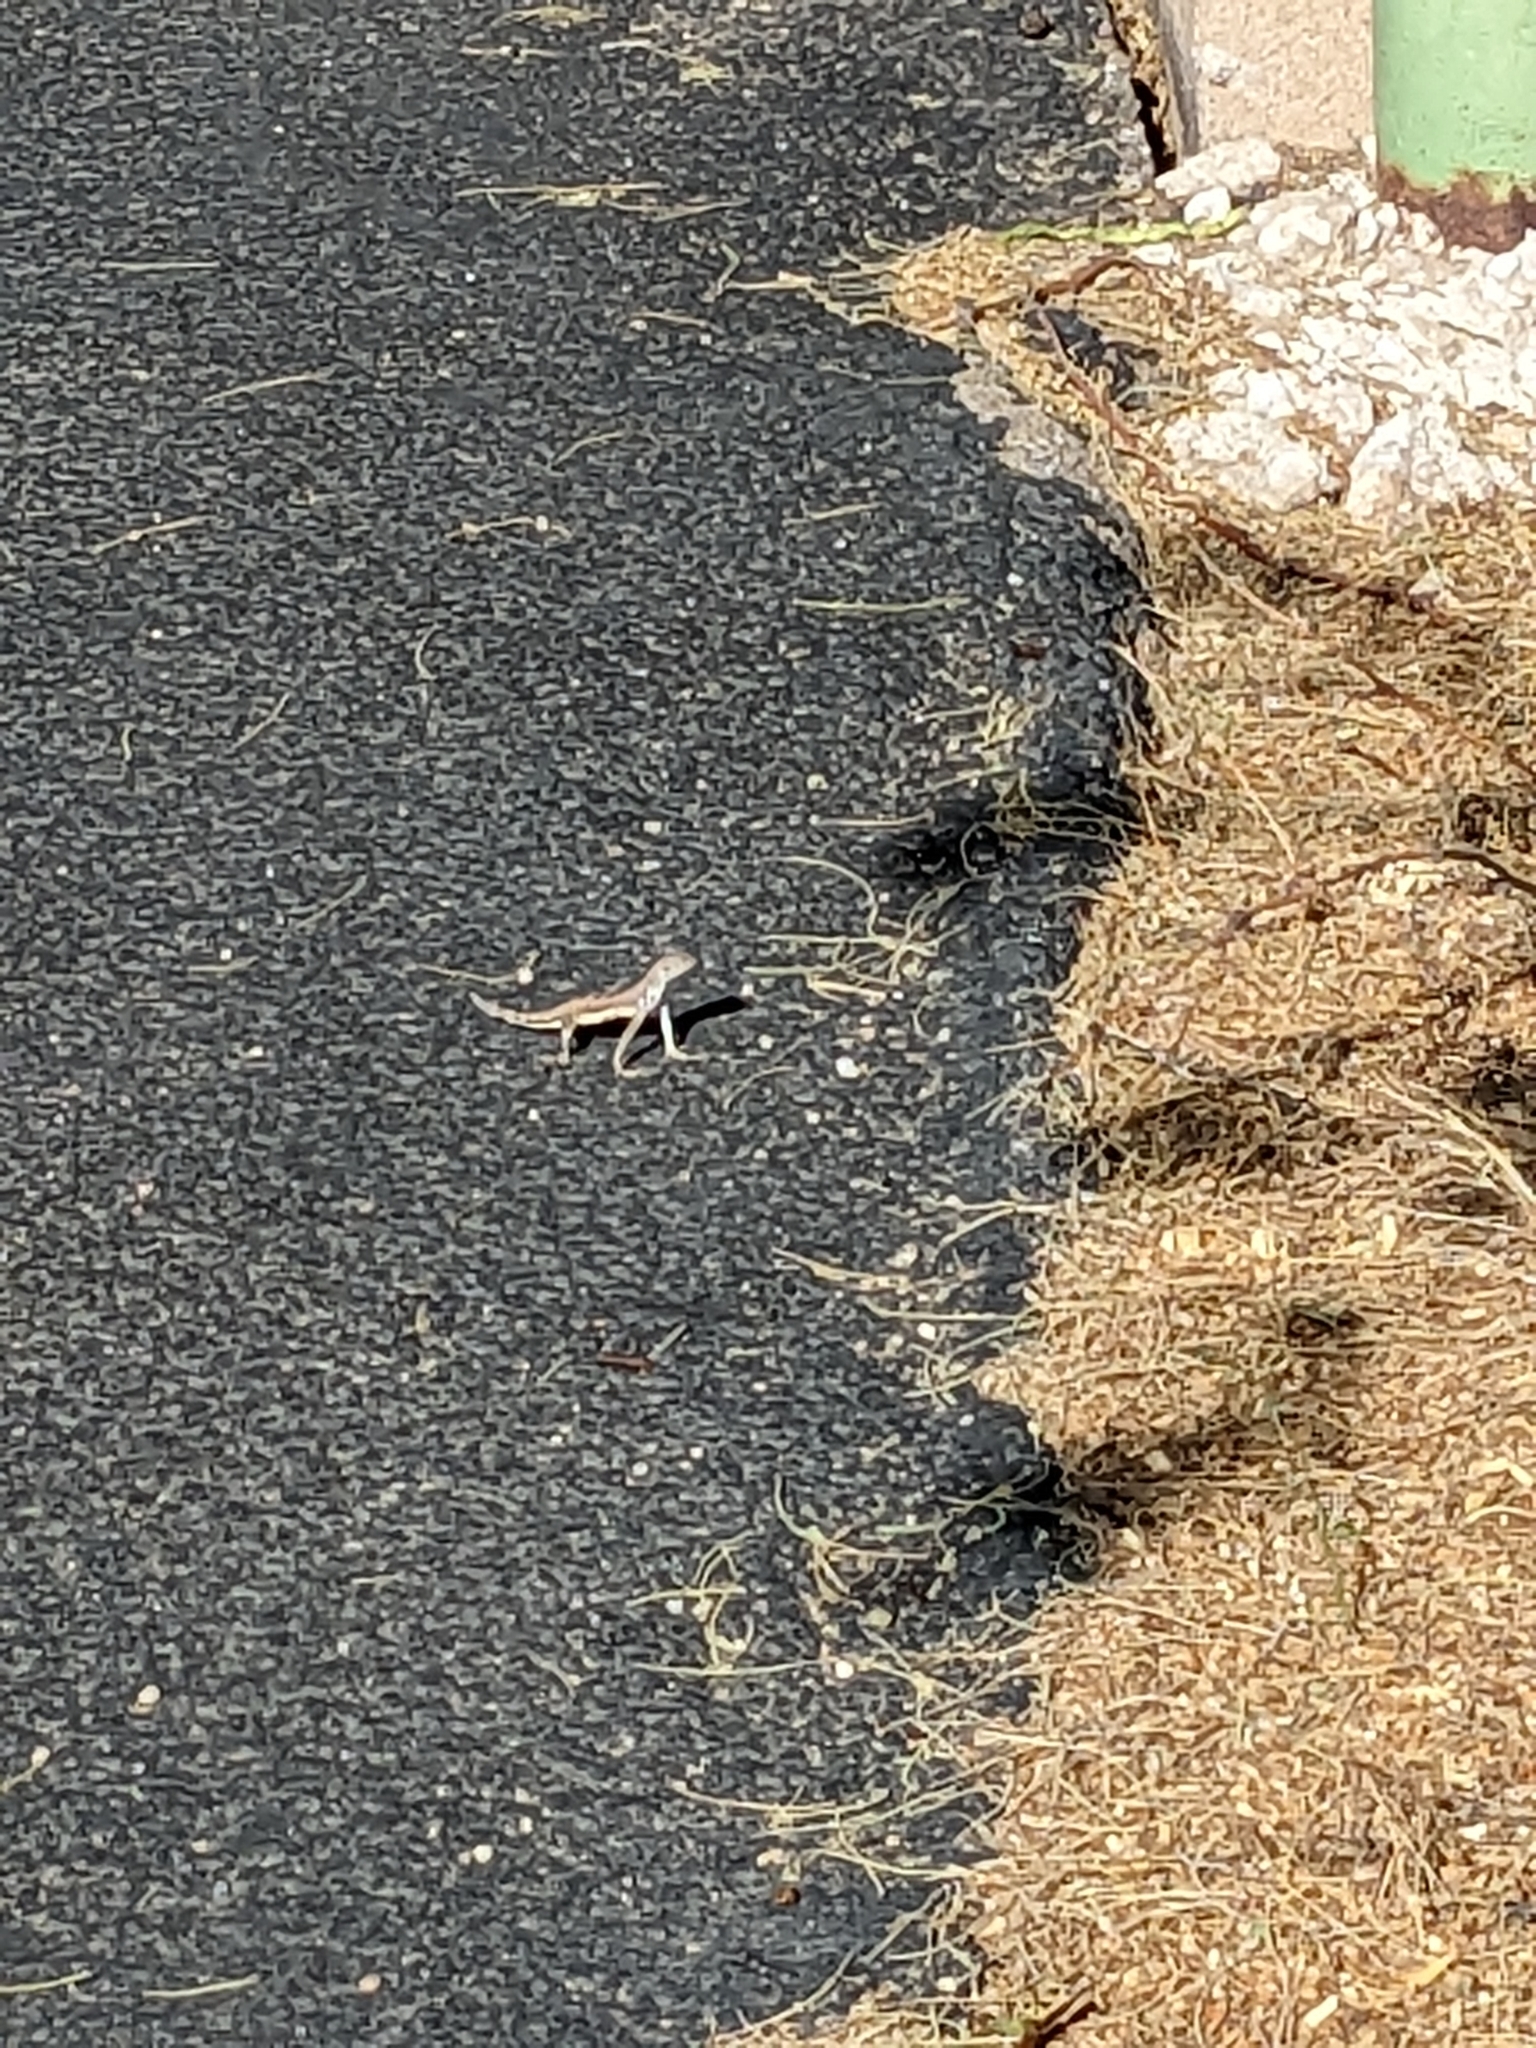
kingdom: Animalia
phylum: Chordata
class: Squamata
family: Phrynosomatidae
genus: Callisaurus
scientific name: Callisaurus draconoides
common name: Zebra-tailed lizard
